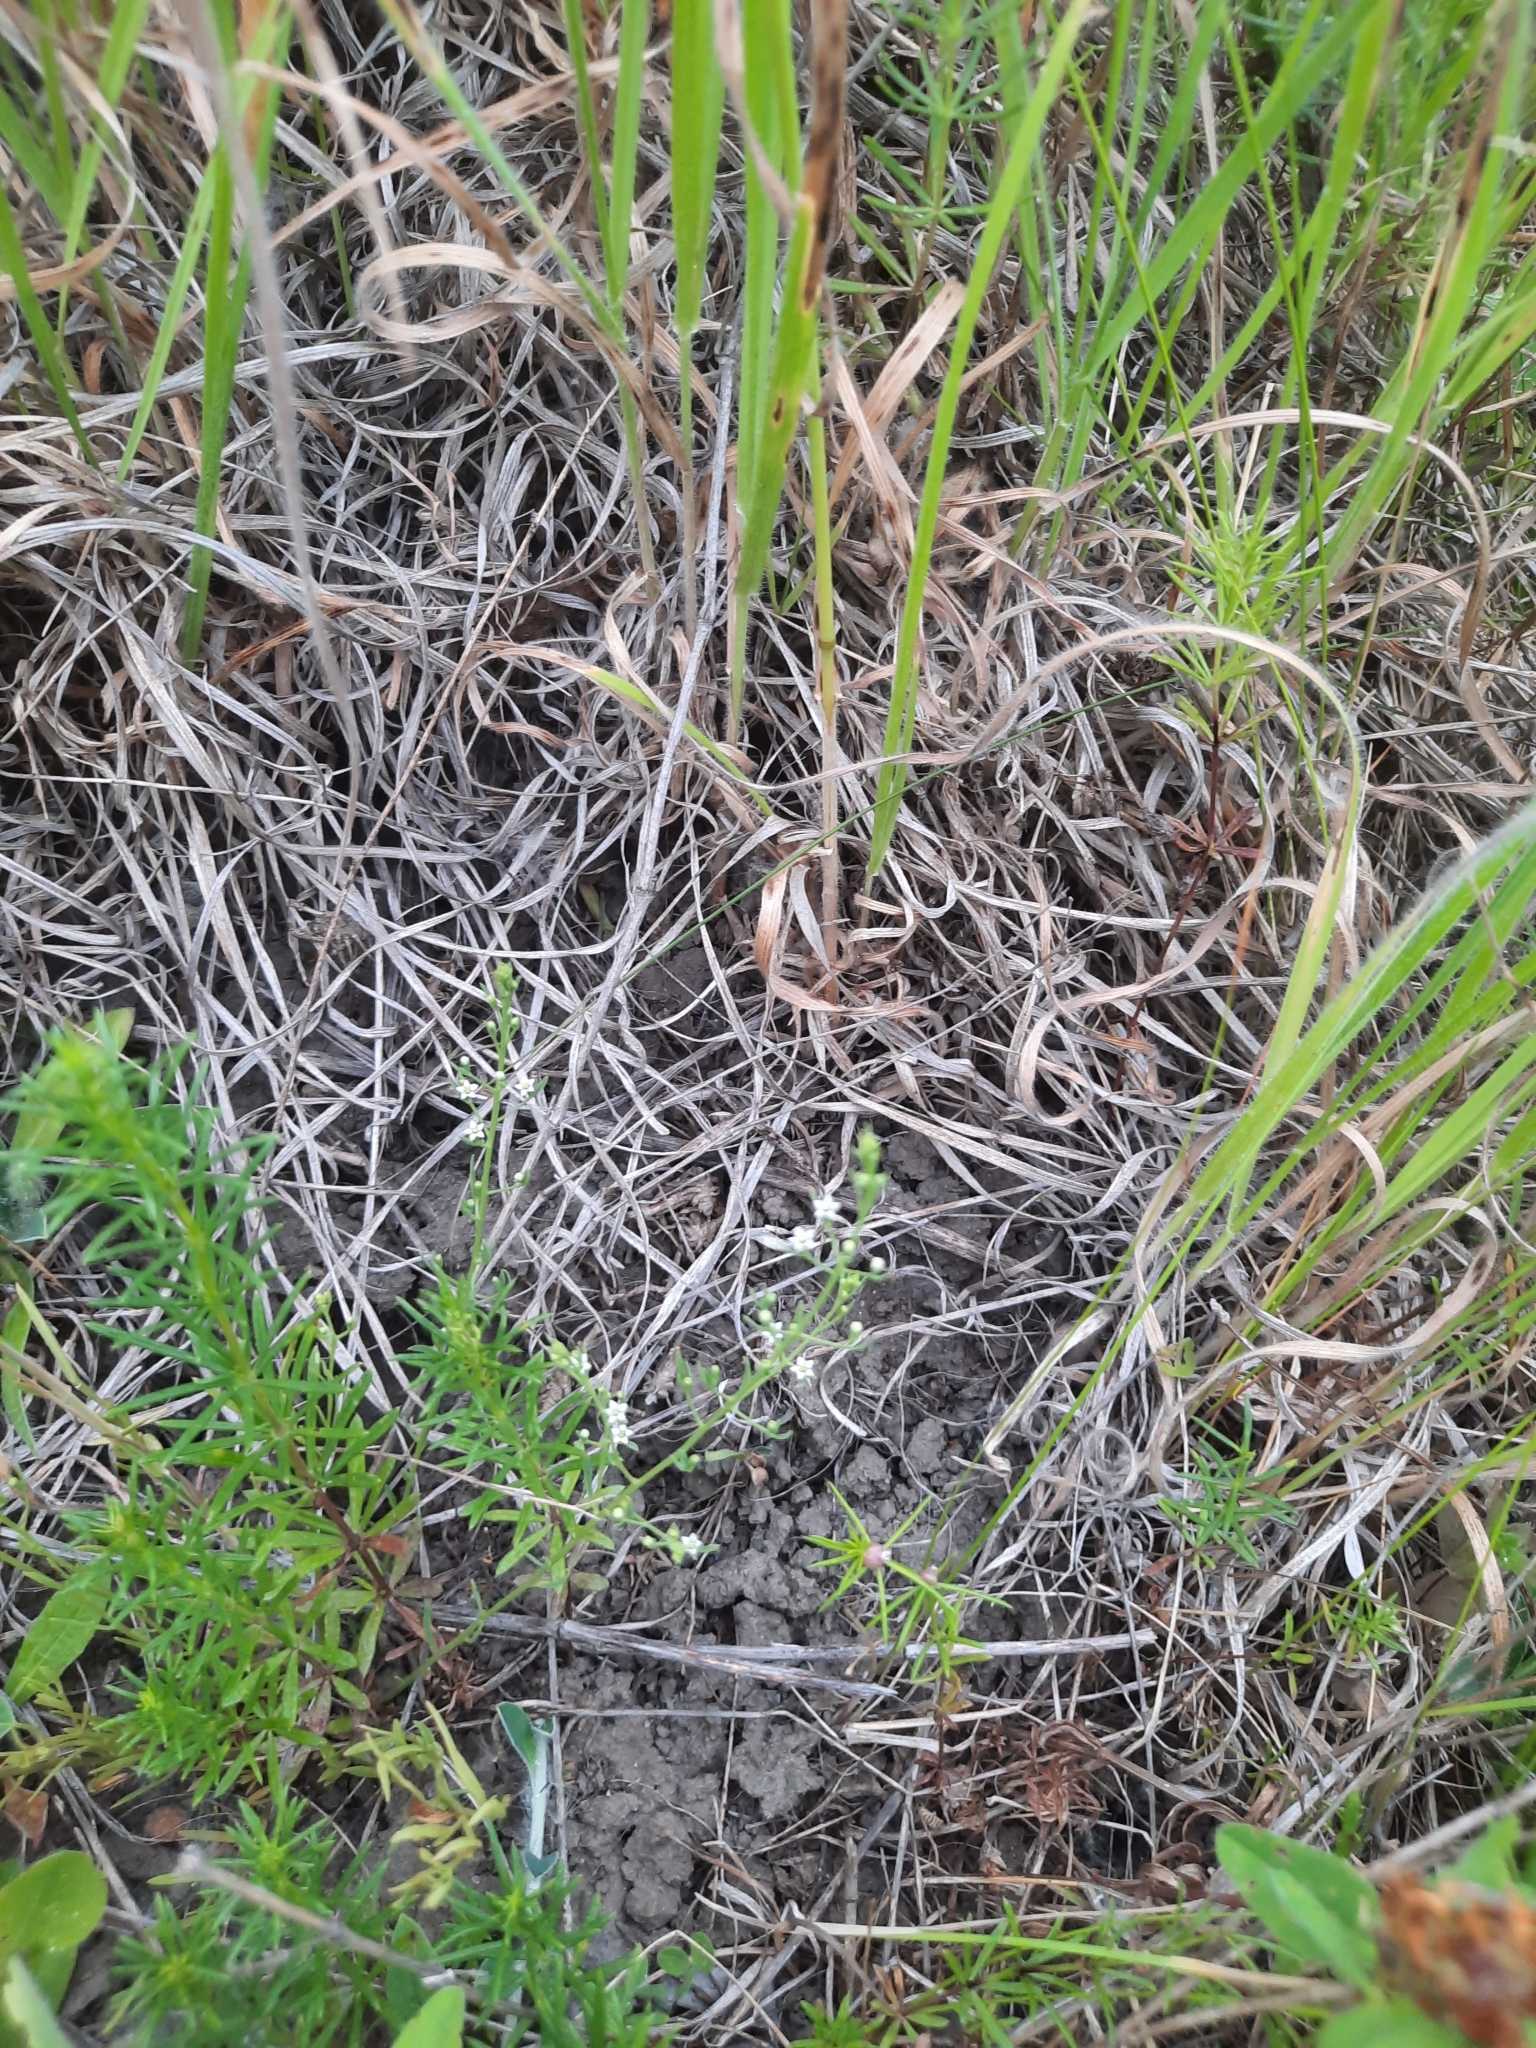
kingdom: Plantae
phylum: Tracheophyta
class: Magnoliopsida
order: Santalales
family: Thesiaceae
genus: Thesium
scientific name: Thesium ramosum
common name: Field thesium
